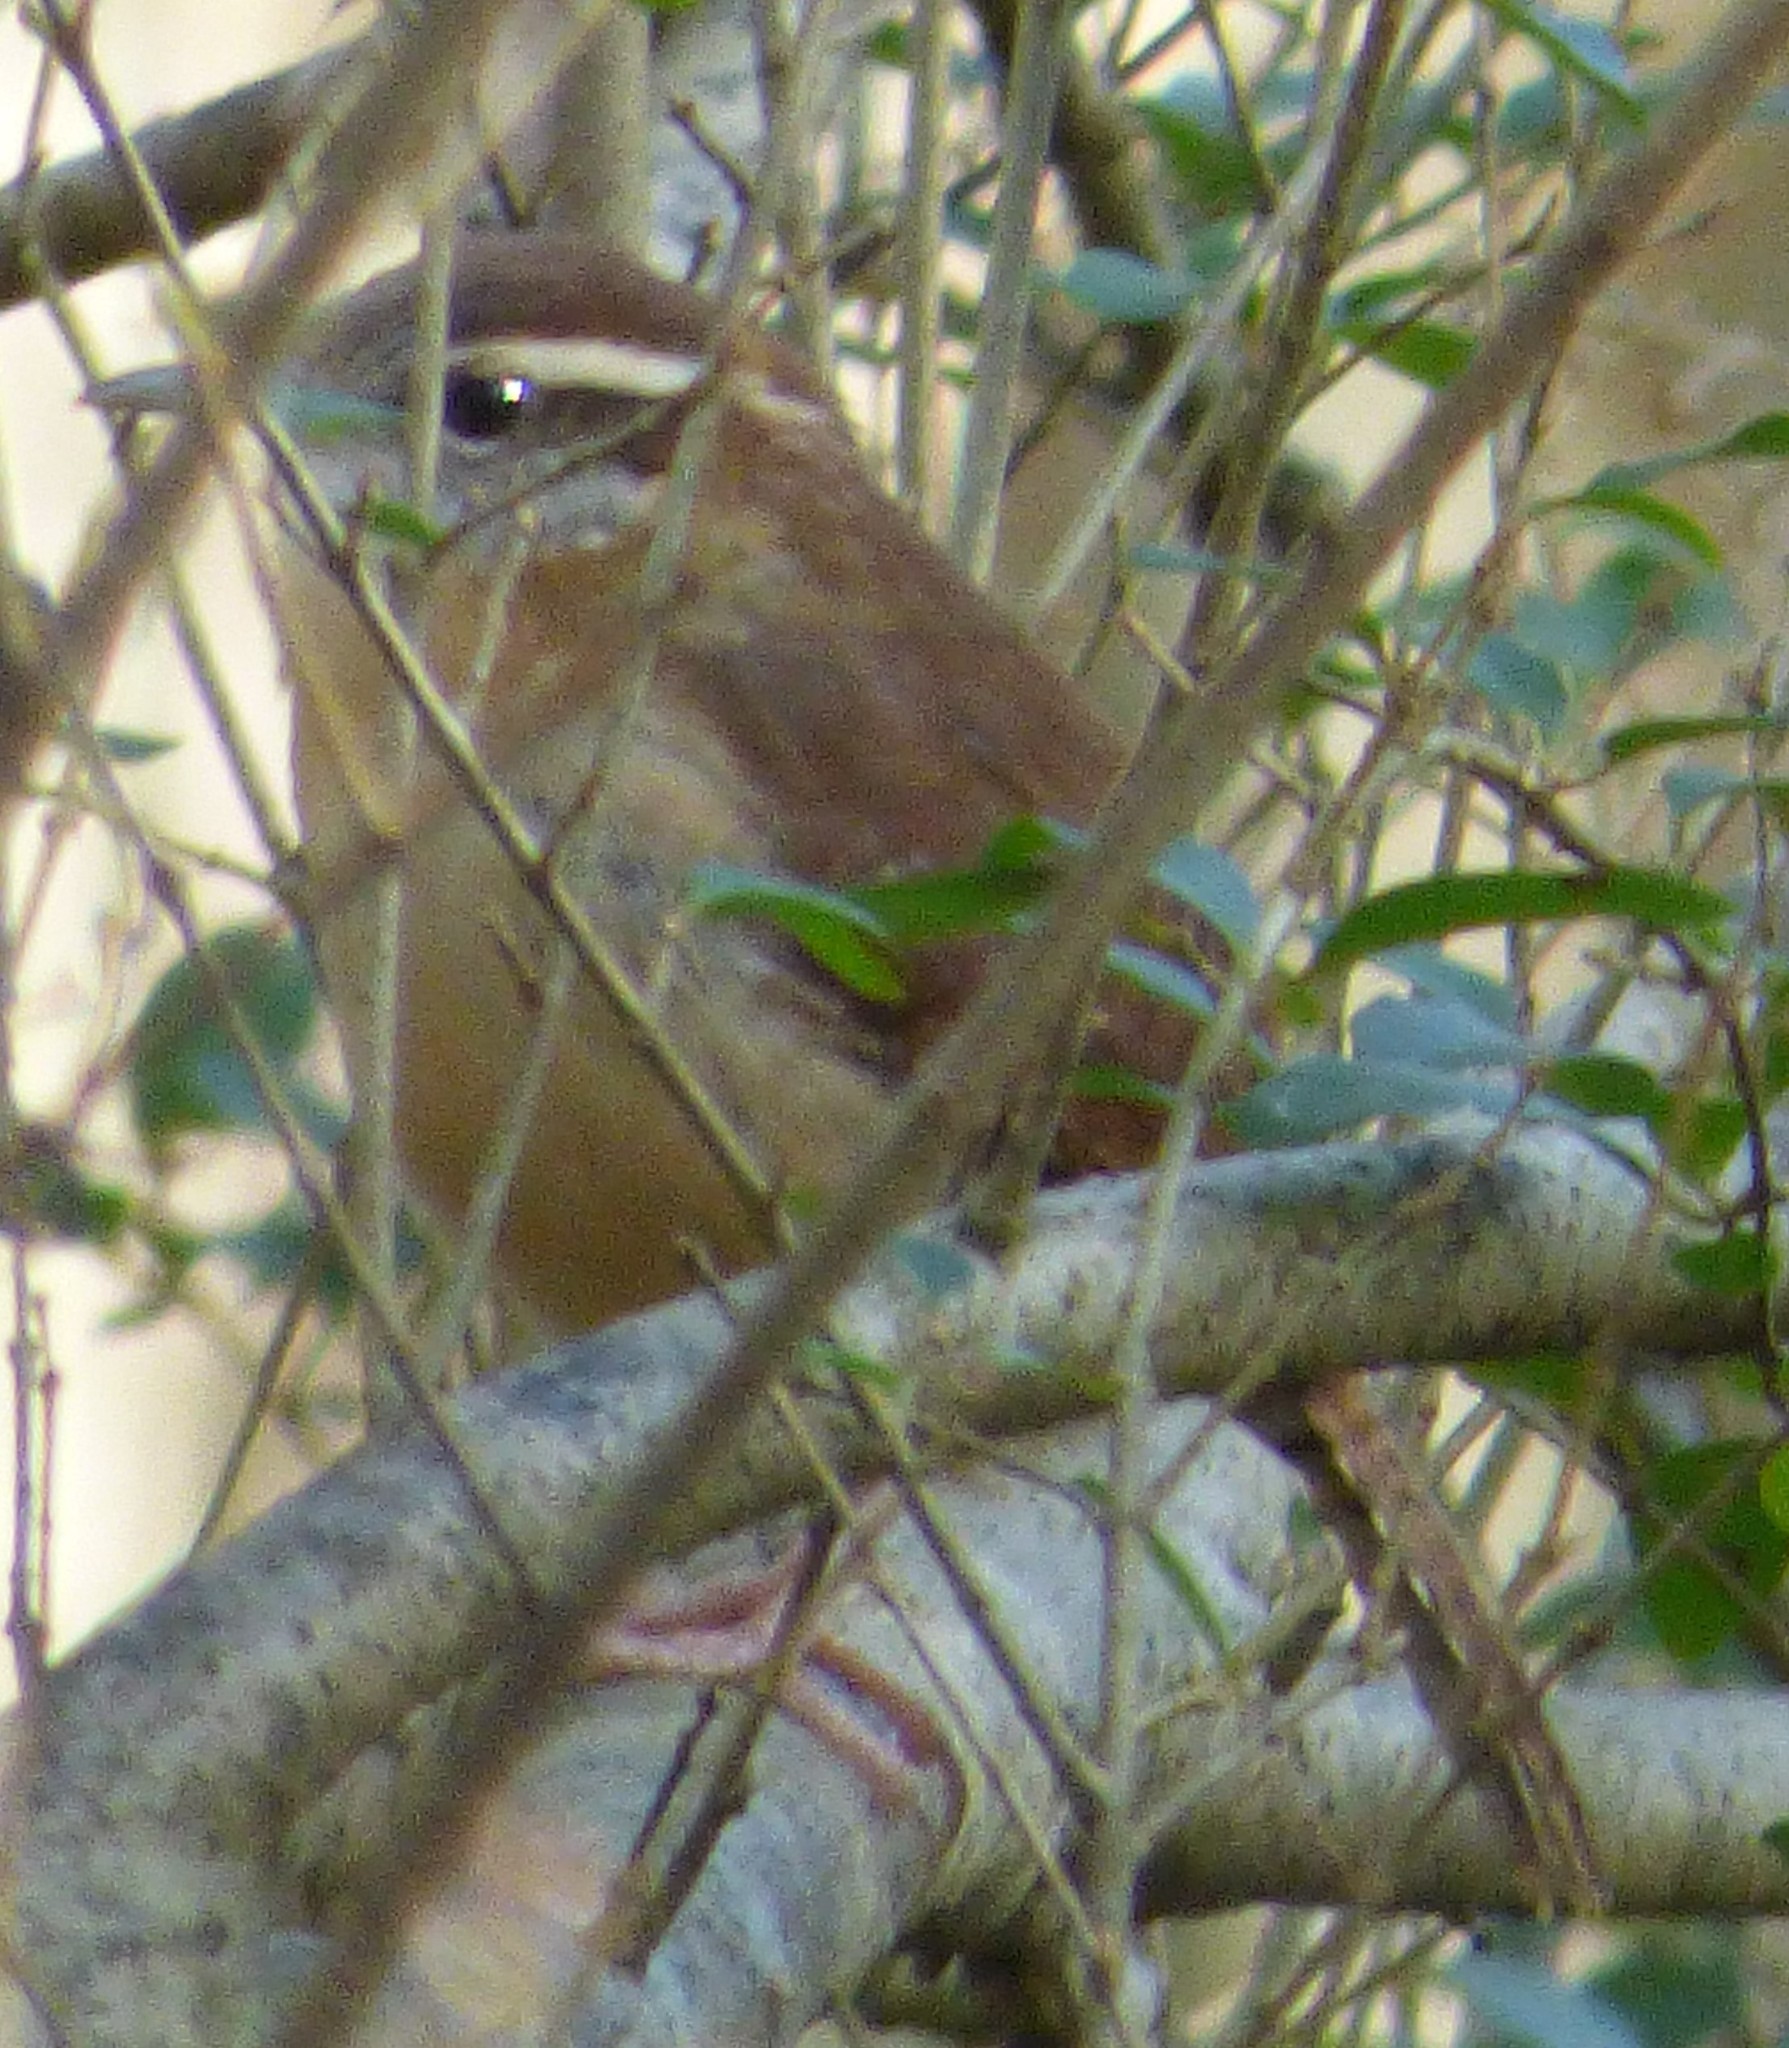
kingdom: Animalia
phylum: Chordata
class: Aves
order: Passeriformes
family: Troglodytidae
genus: Thryothorus
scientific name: Thryothorus ludovicianus
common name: Carolina wren
